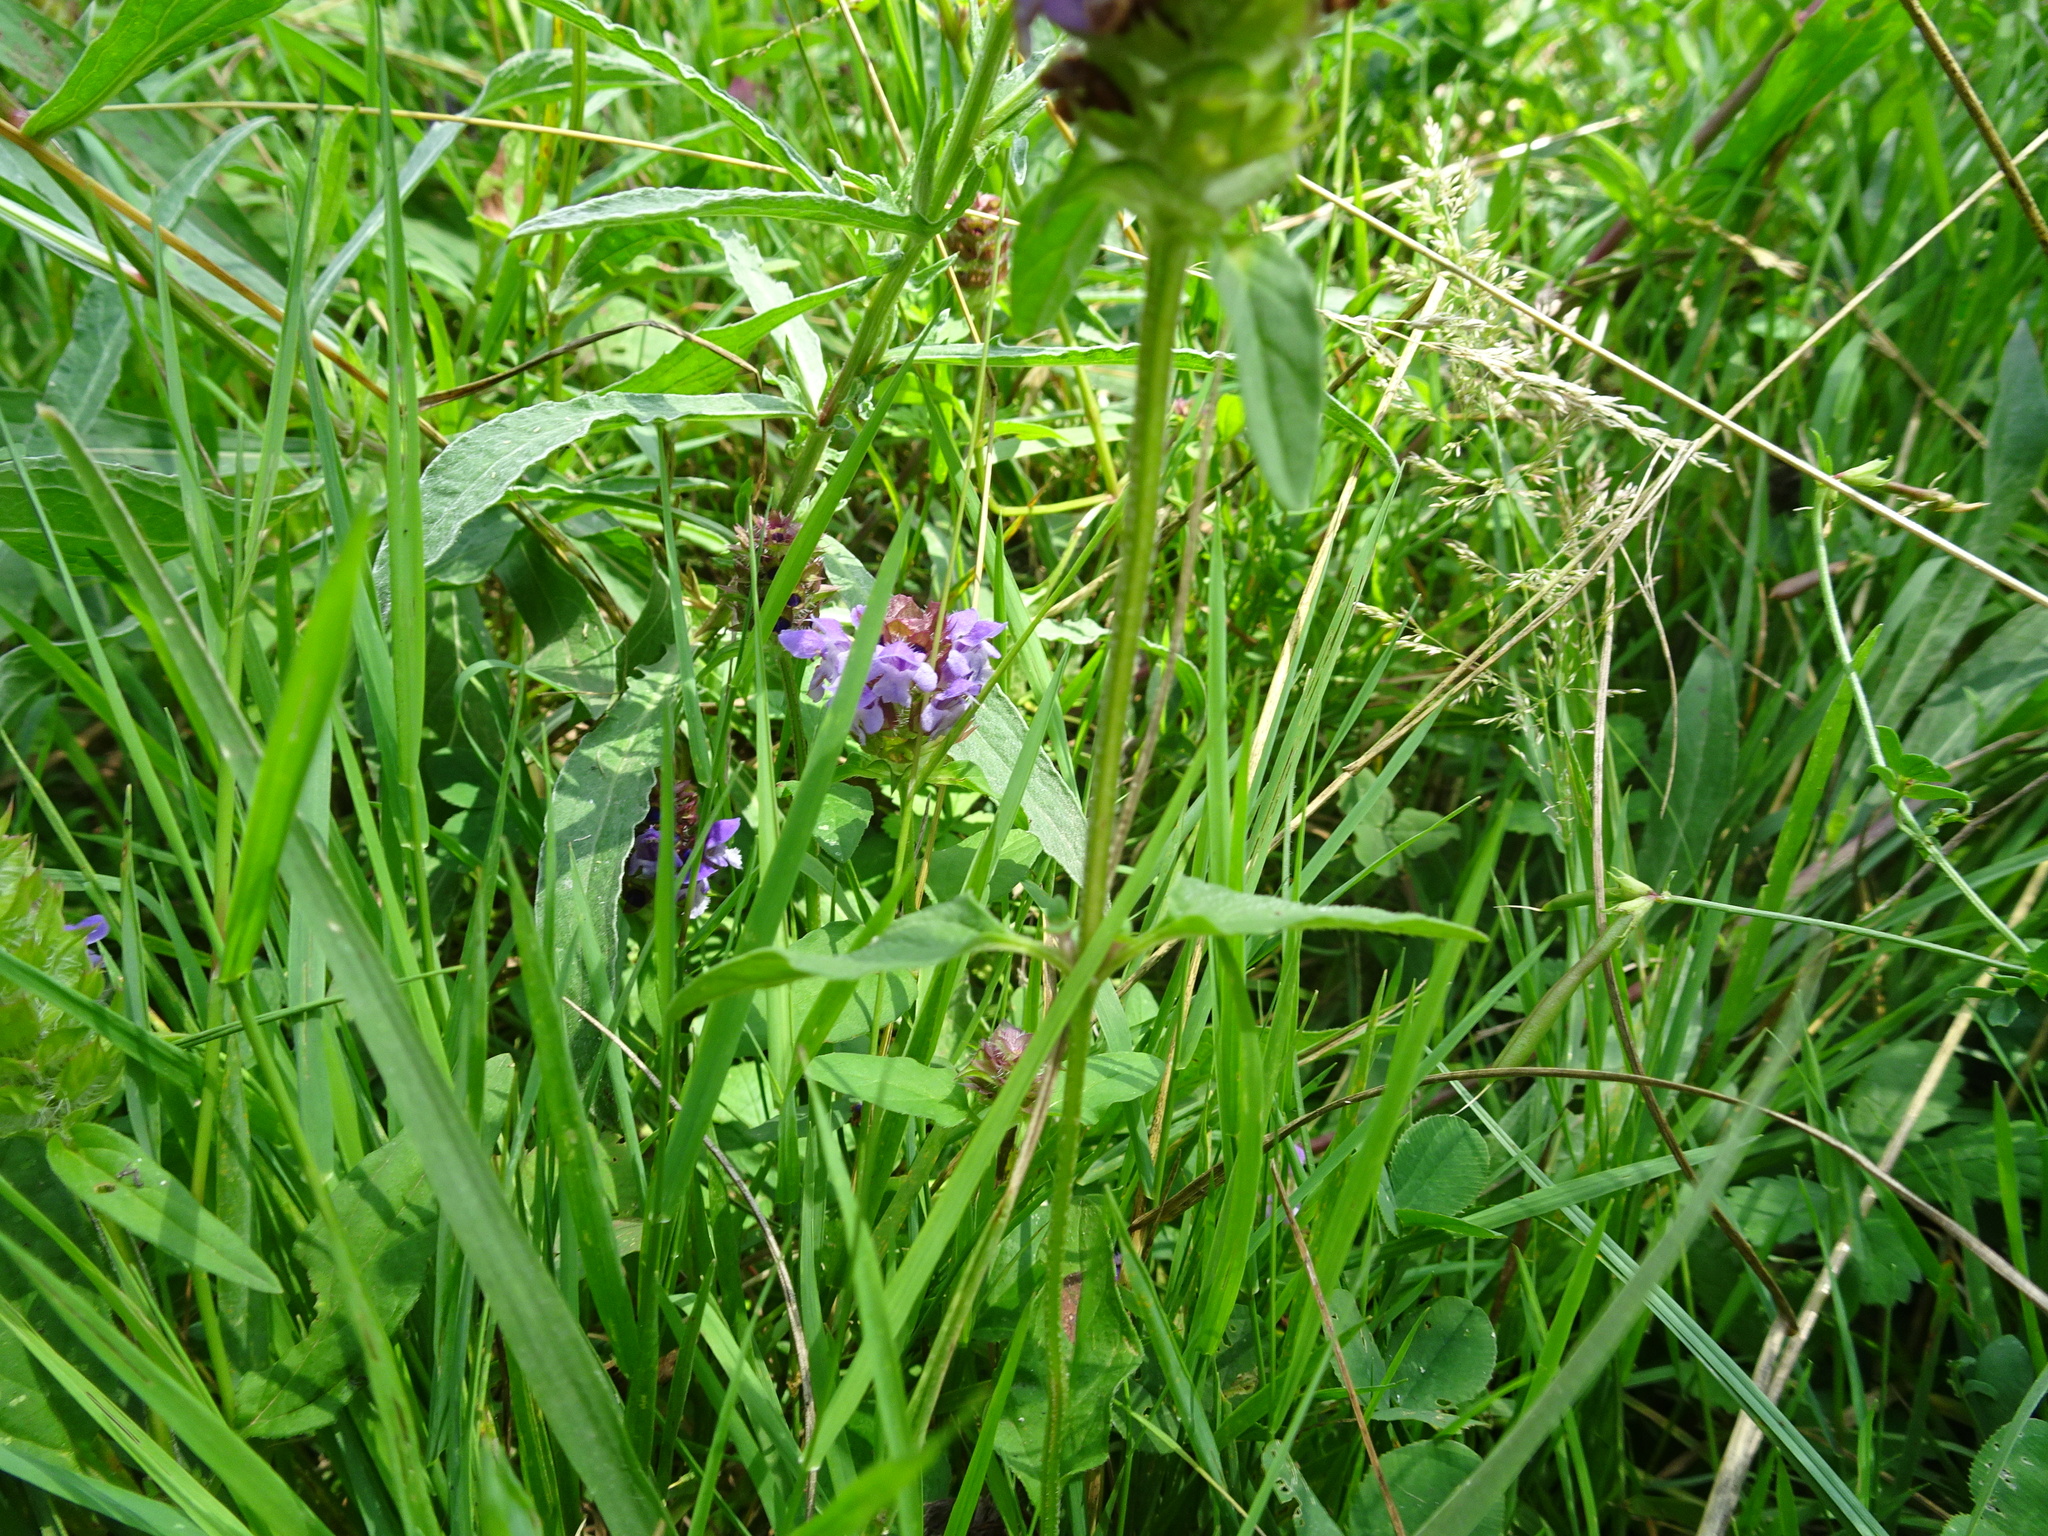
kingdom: Plantae
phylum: Tracheophyta
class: Magnoliopsida
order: Lamiales
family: Lamiaceae
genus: Prunella
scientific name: Prunella vulgaris
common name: Heal-all
